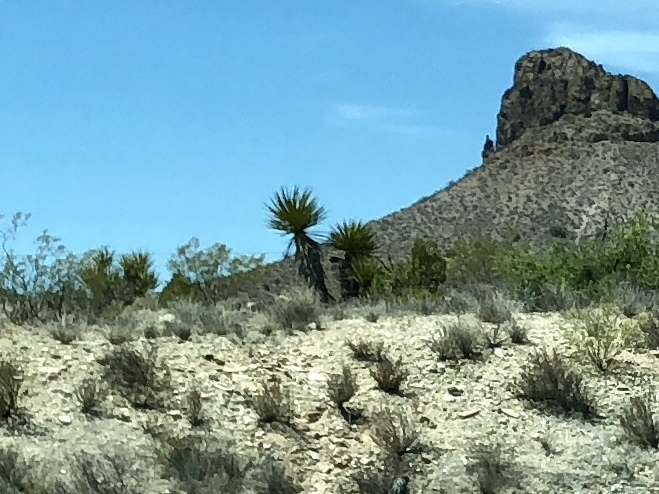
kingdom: Plantae
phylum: Tracheophyta
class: Liliopsida
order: Asparagales
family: Asparagaceae
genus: Yucca
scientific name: Yucca schidigera
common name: Mojave yucca
